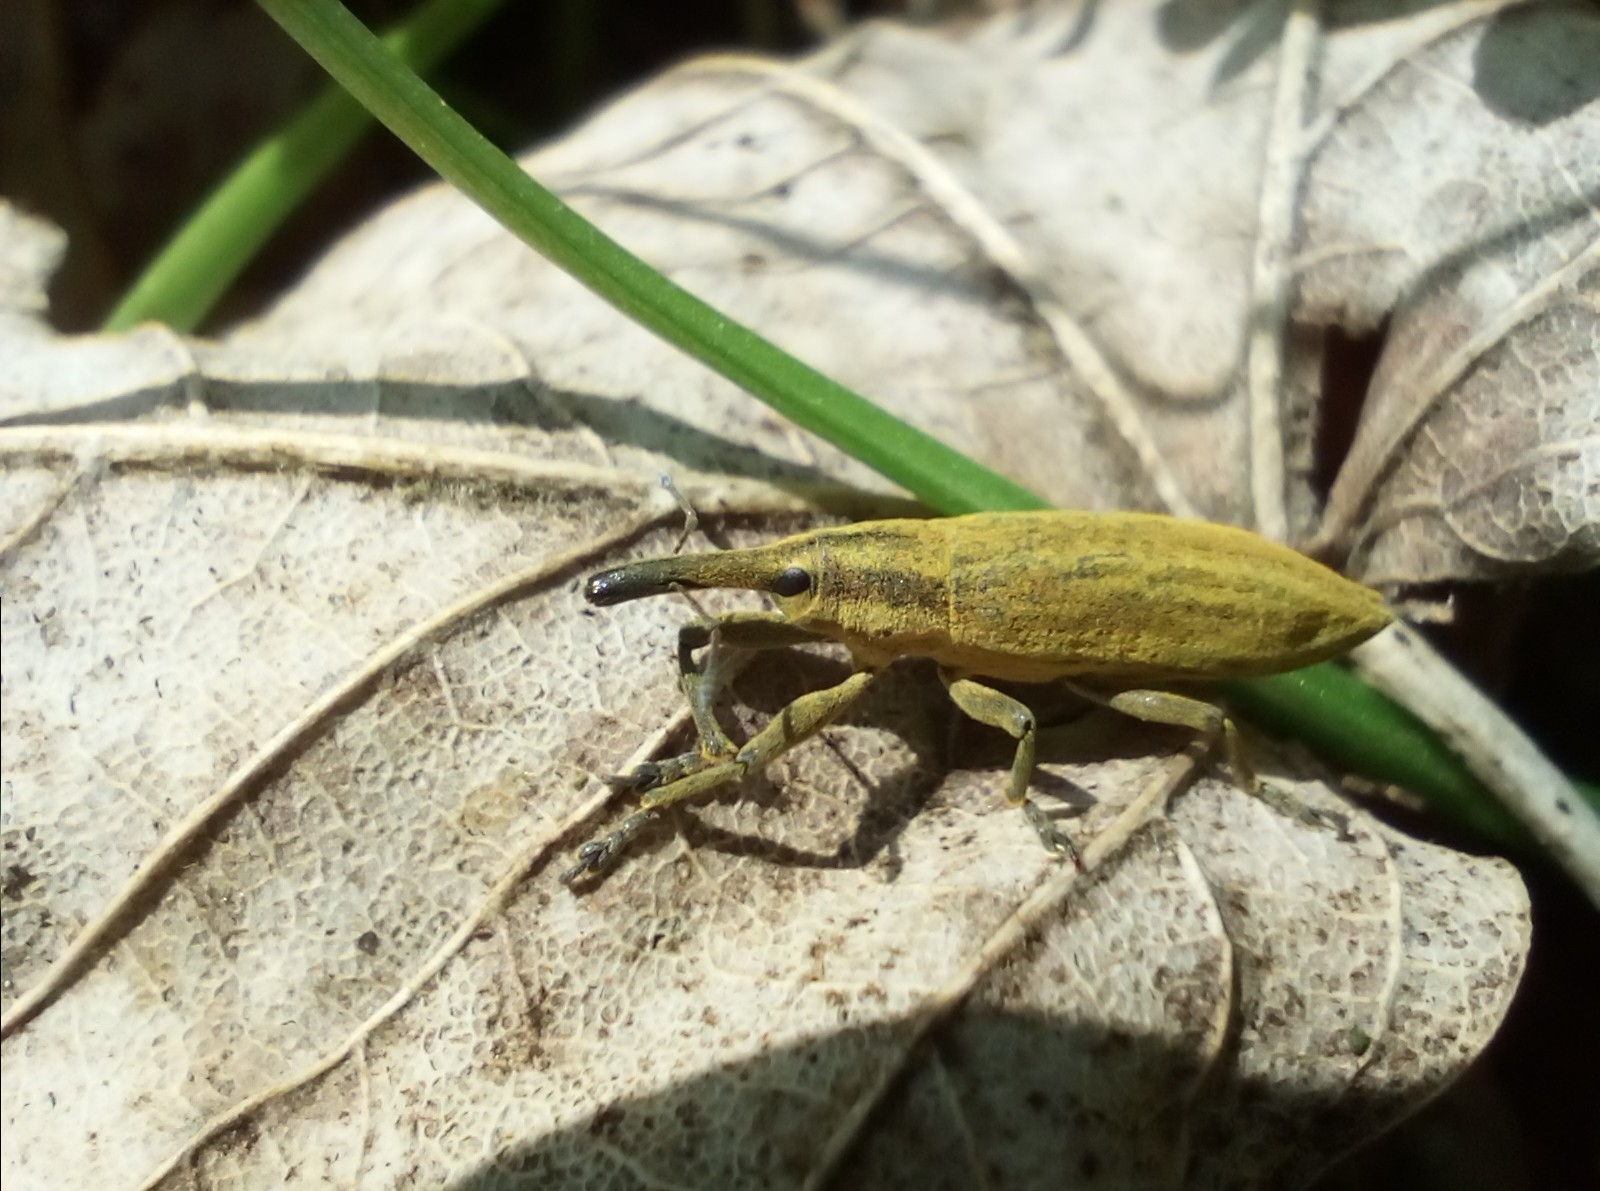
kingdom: Animalia
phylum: Arthropoda
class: Insecta
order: Coleoptera
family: Curculionidae
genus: Lixus
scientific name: Lixus iridis
